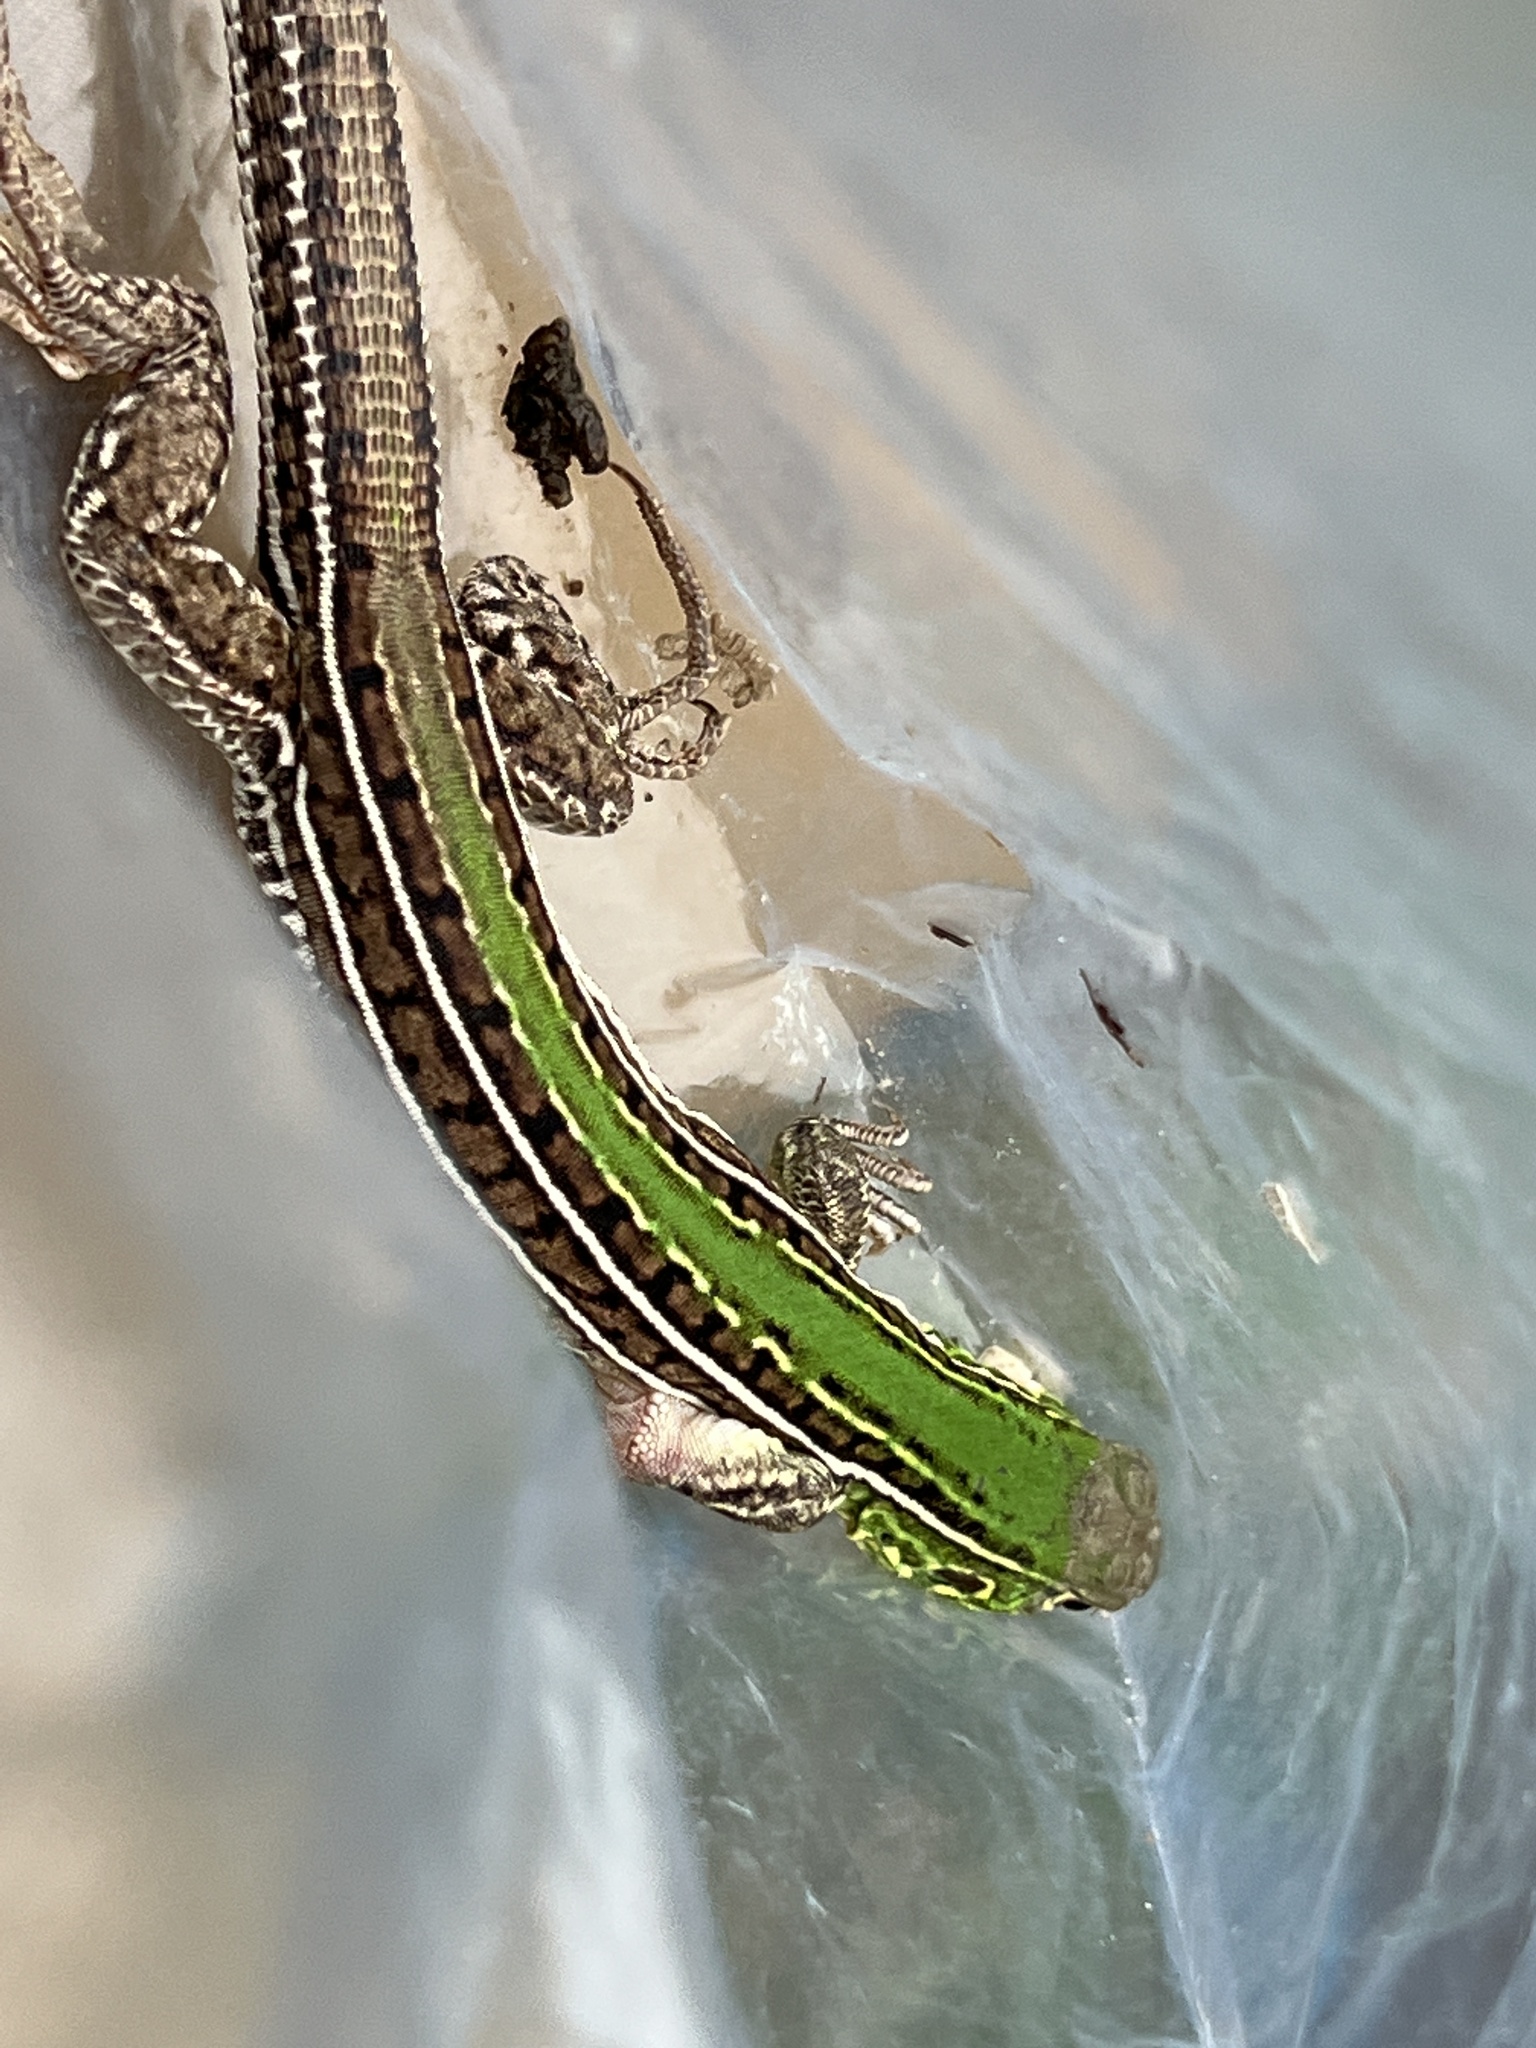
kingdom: Animalia
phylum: Chordata
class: Squamata
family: Teiidae
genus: Teius
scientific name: Teius oculatus
